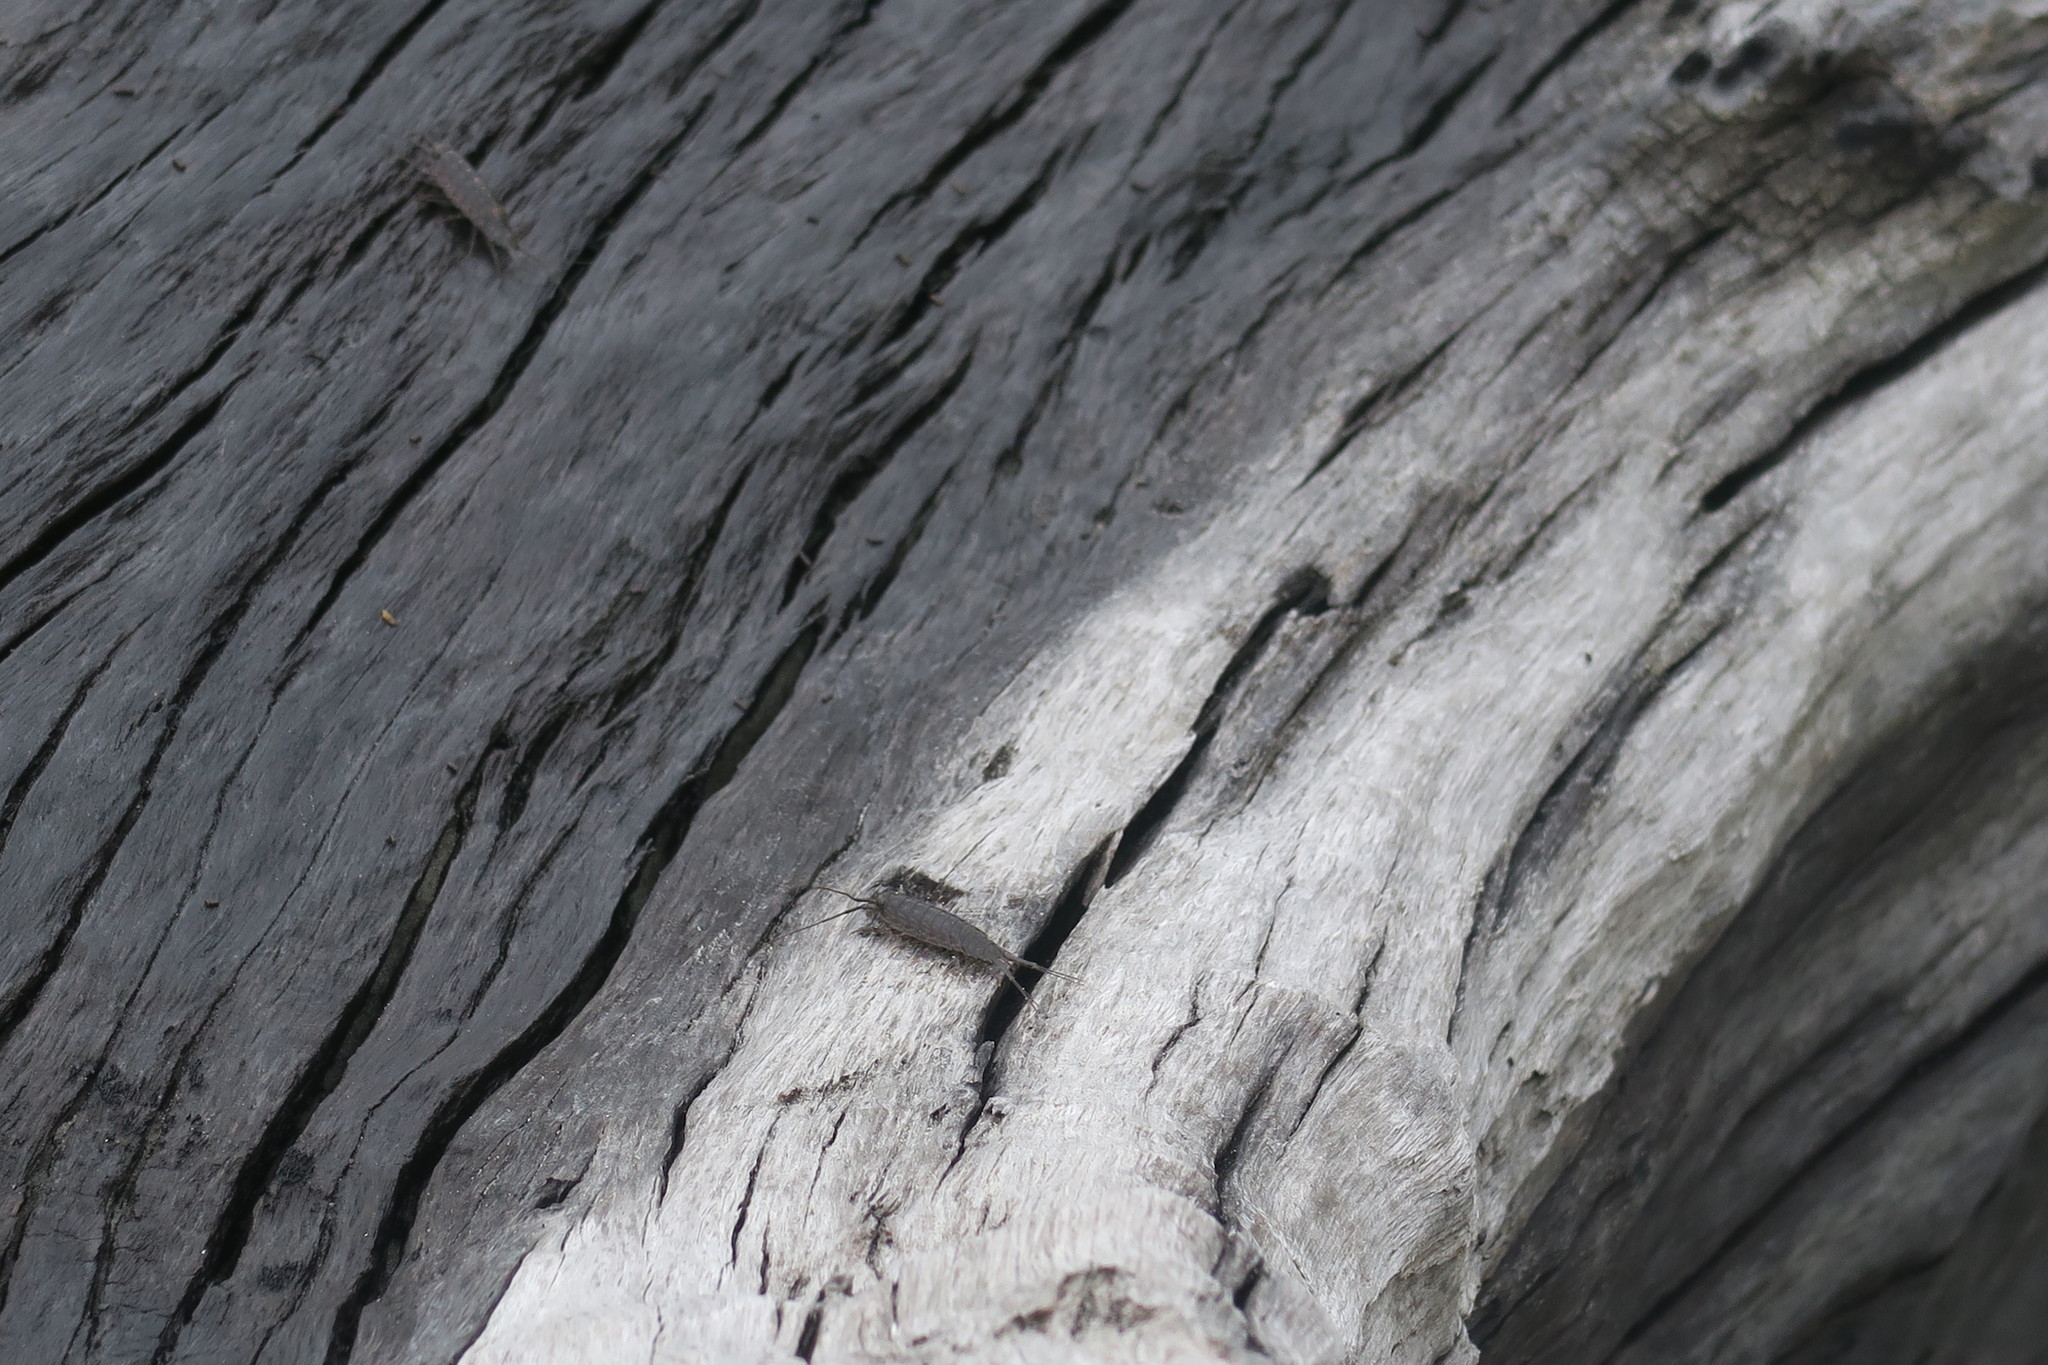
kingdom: Animalia
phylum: Arthropoda
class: Malacostraca
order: Isopoda
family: Ligiidae
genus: Ligia
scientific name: Ligia exotica
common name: Wharf roach
